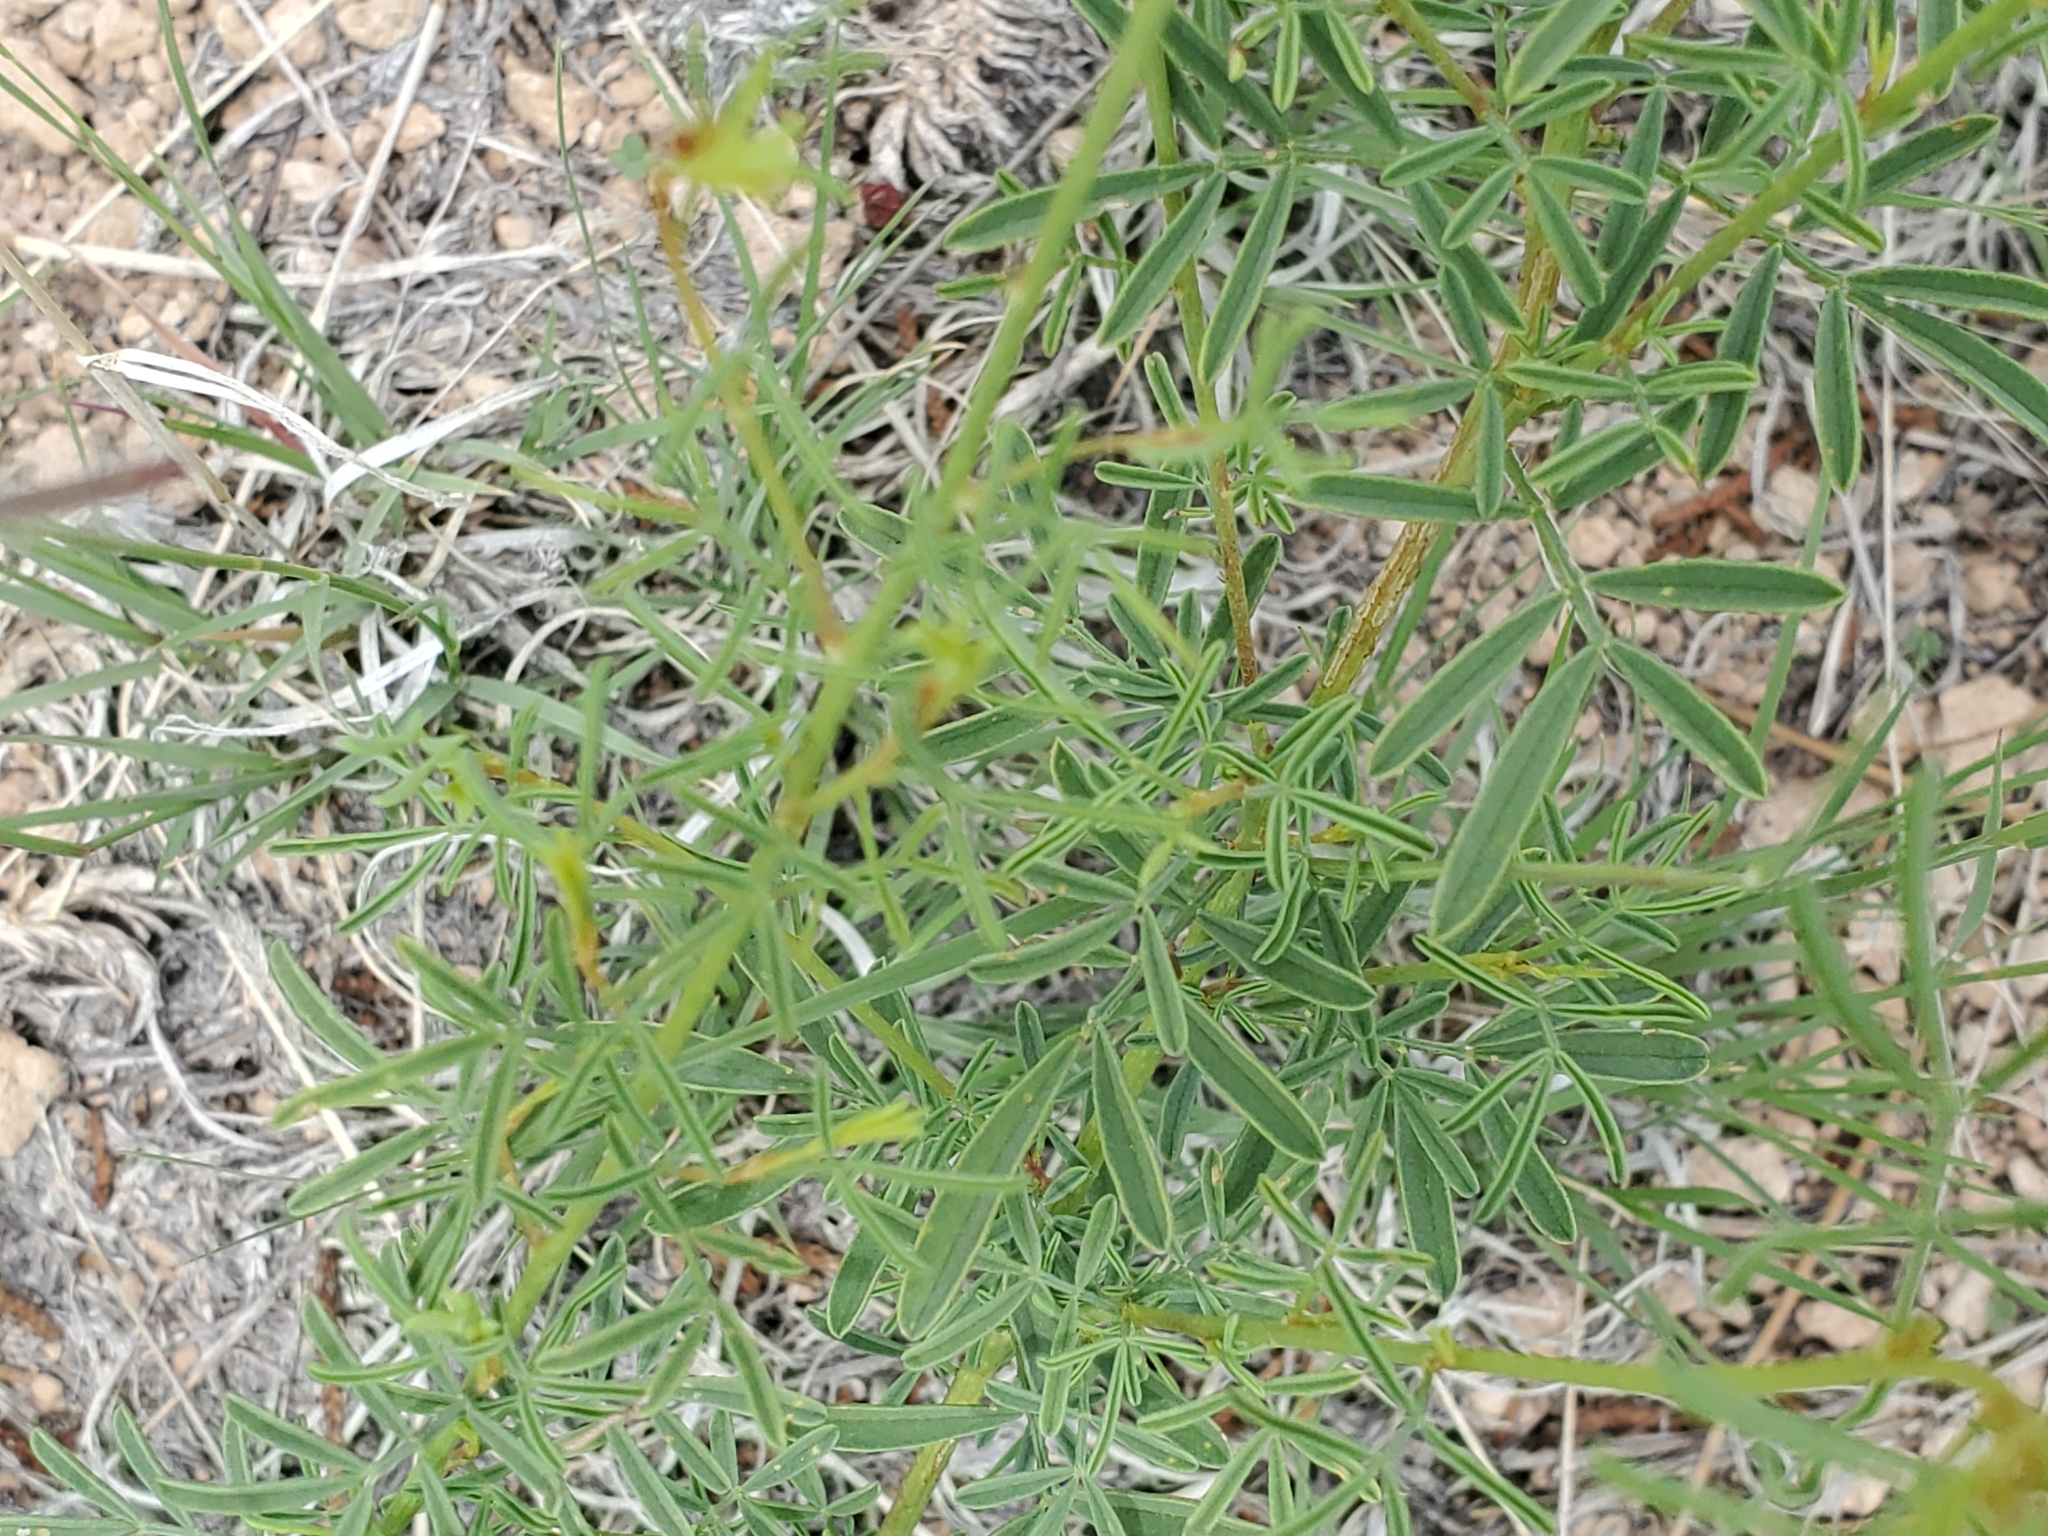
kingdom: Plantae
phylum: Tracheophyta
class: Magnoliopsida
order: Fabales
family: Fabaceae
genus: Dalea
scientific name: Dalea candida
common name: White prairie-clover
